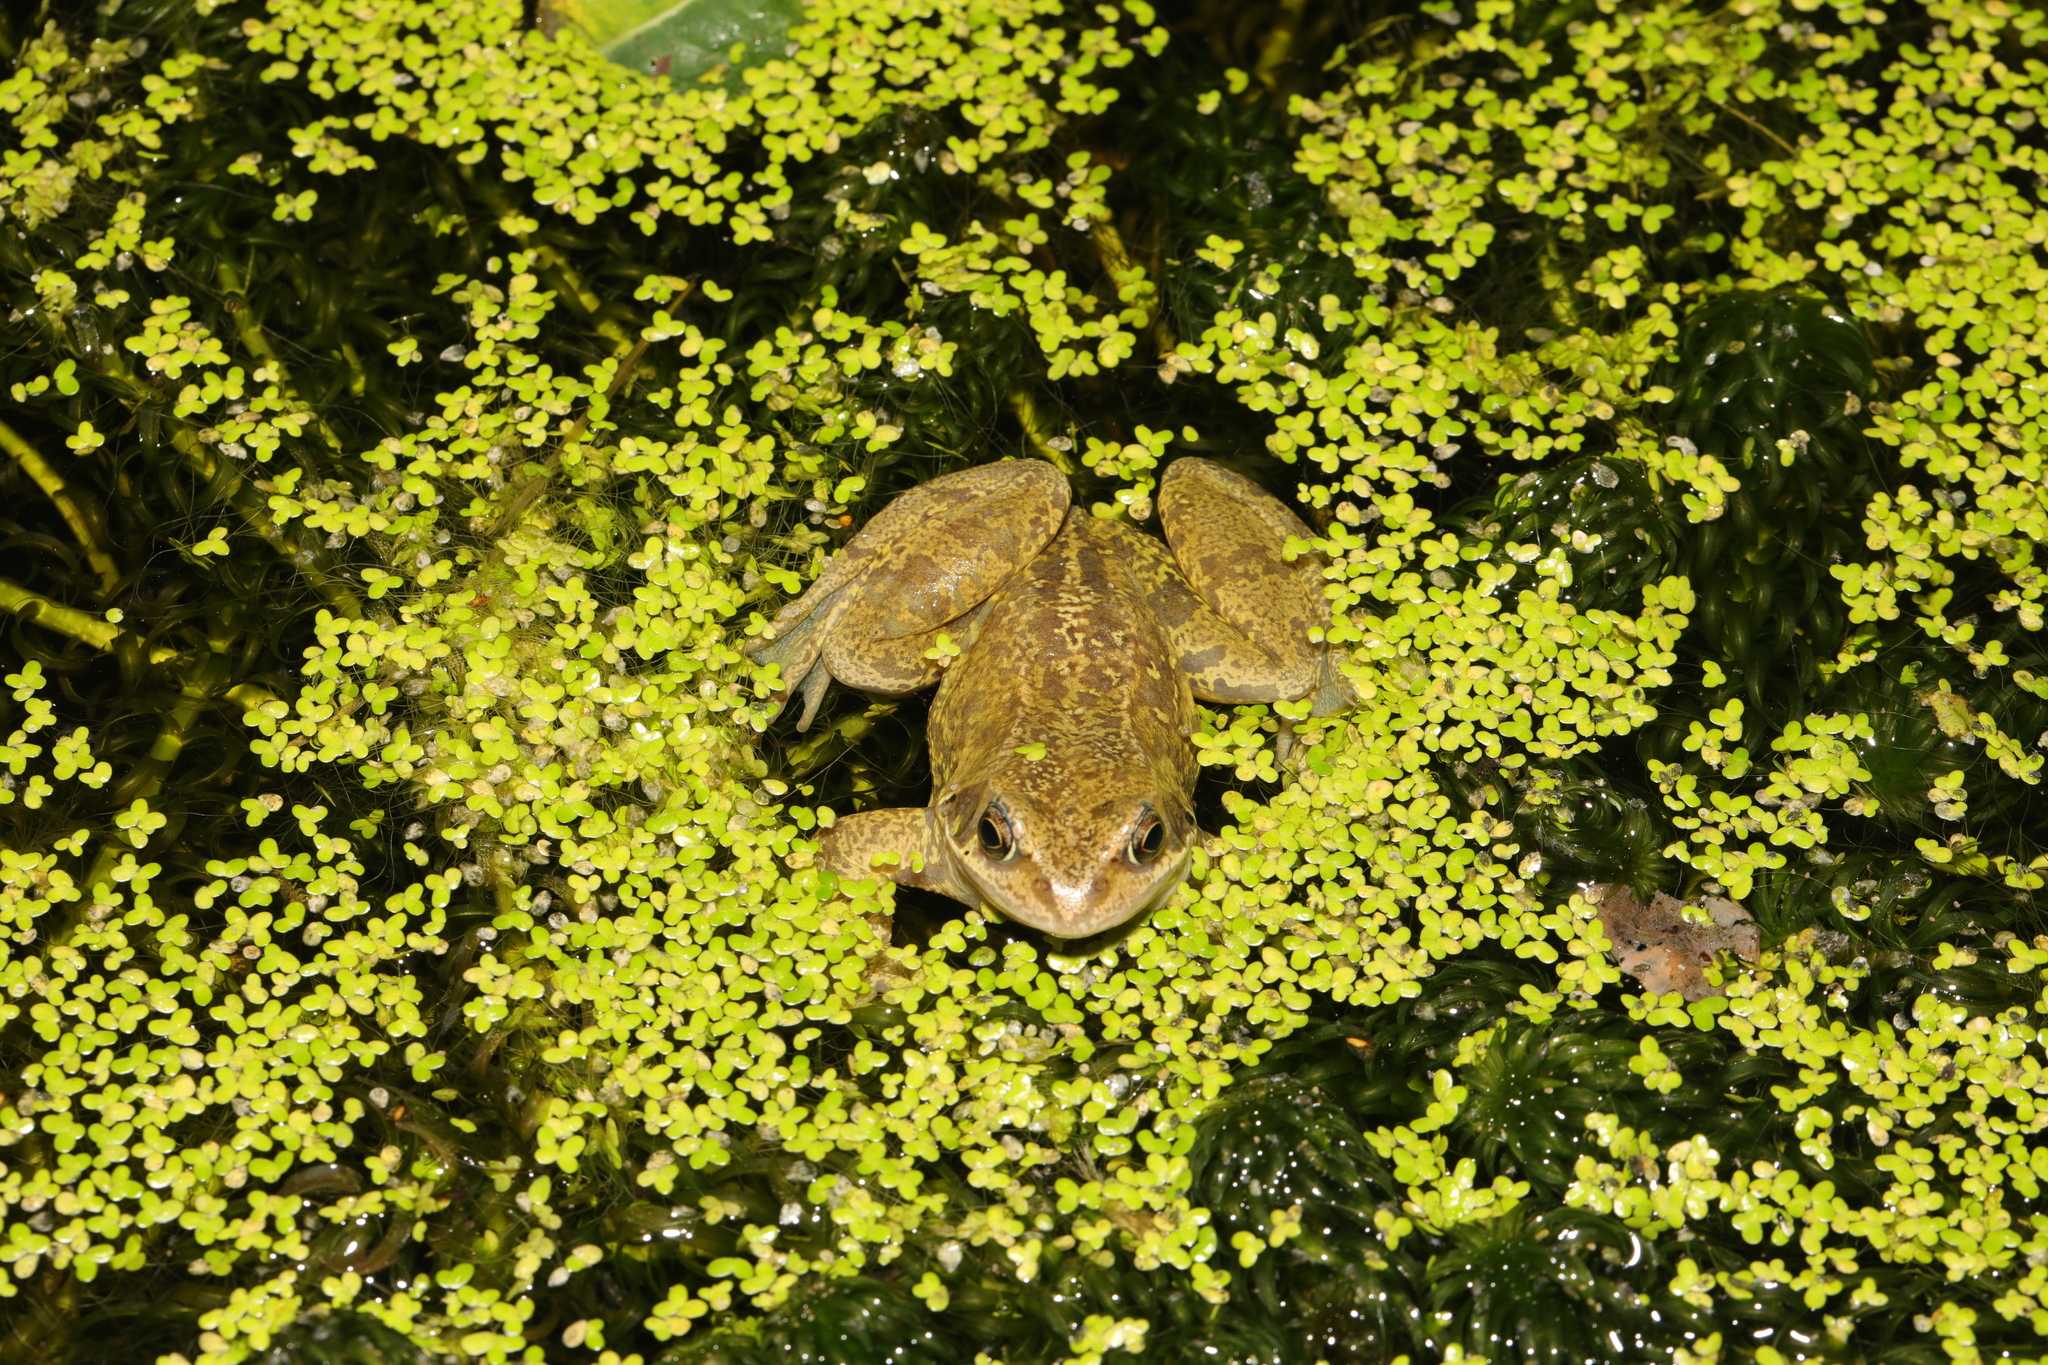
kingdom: Plantae
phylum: Tracheophyta
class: Liliopsida
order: Alismatales
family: Araceae
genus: Lemna
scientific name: Lemna minor
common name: Common duckweed
